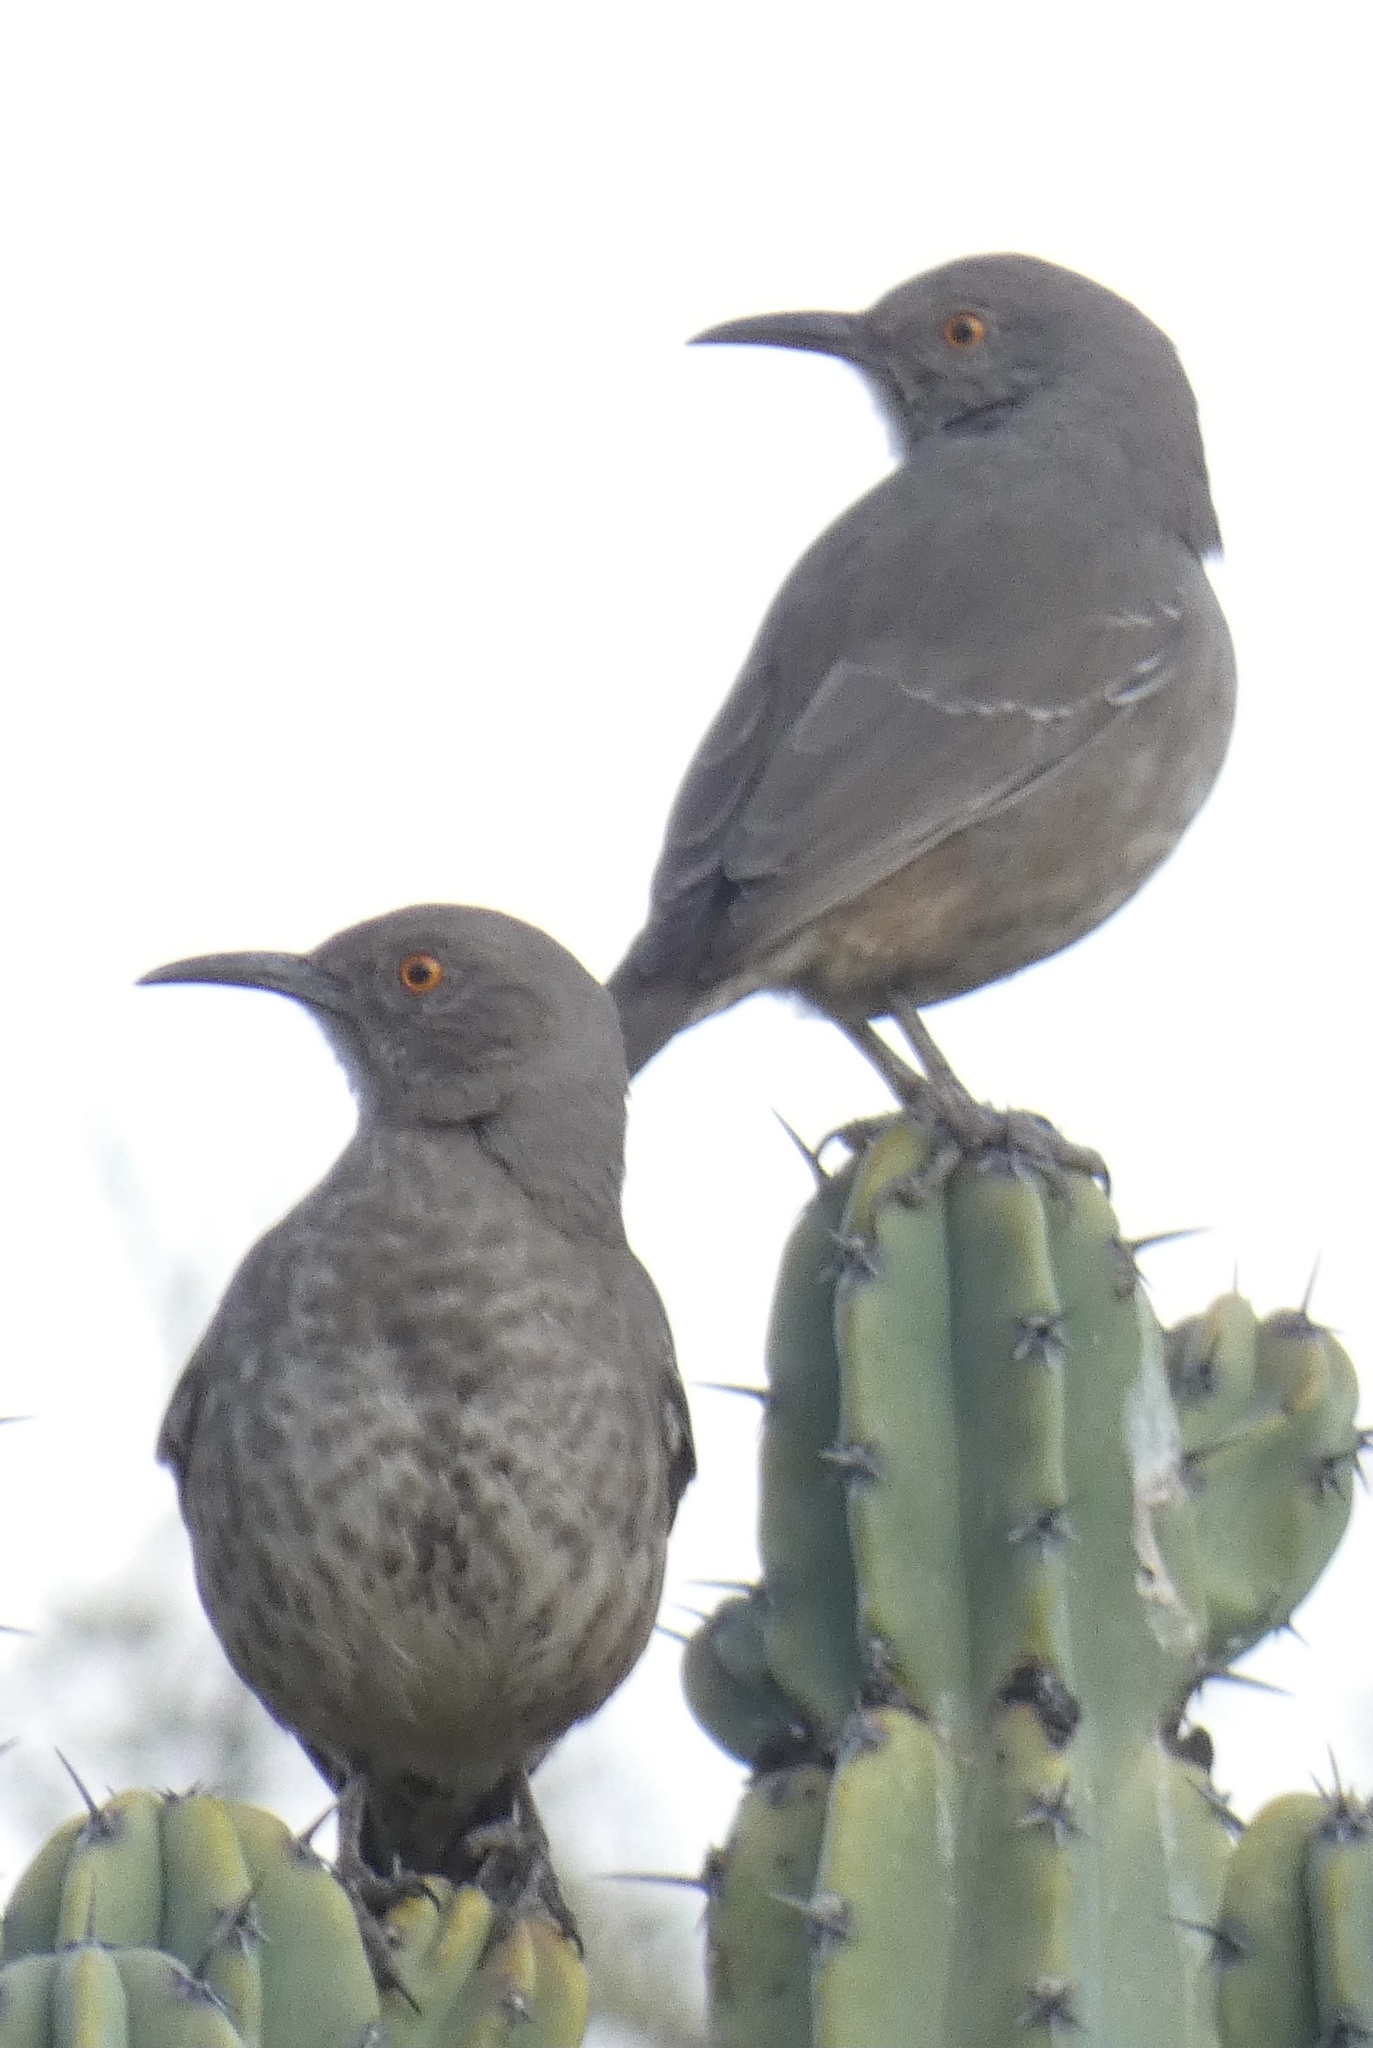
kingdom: Animalia
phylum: Chordata
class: Aves
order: Passeriformes
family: Mimidae
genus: Toxostoma
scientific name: Toxostoma curvirostre
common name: Curve-billed thrasher
